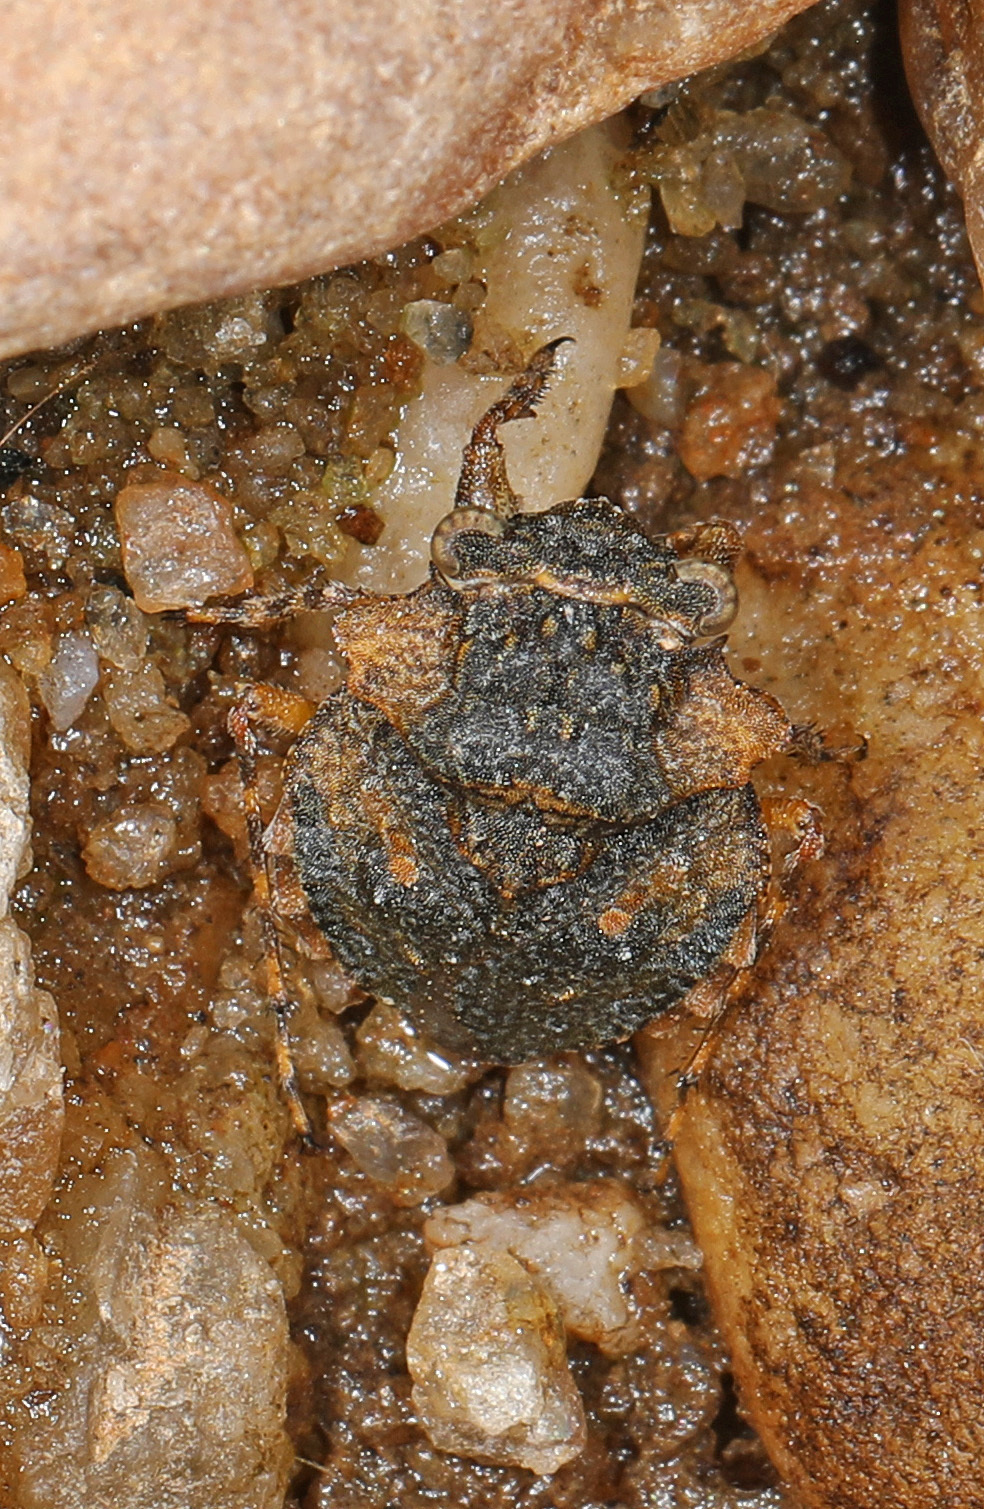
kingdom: Animalia
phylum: Arthropoda
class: Insecta
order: Hemiptera
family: Gelastocoridae
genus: Gelastocoris
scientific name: Gelastocoris oculatus
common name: Toad bug
